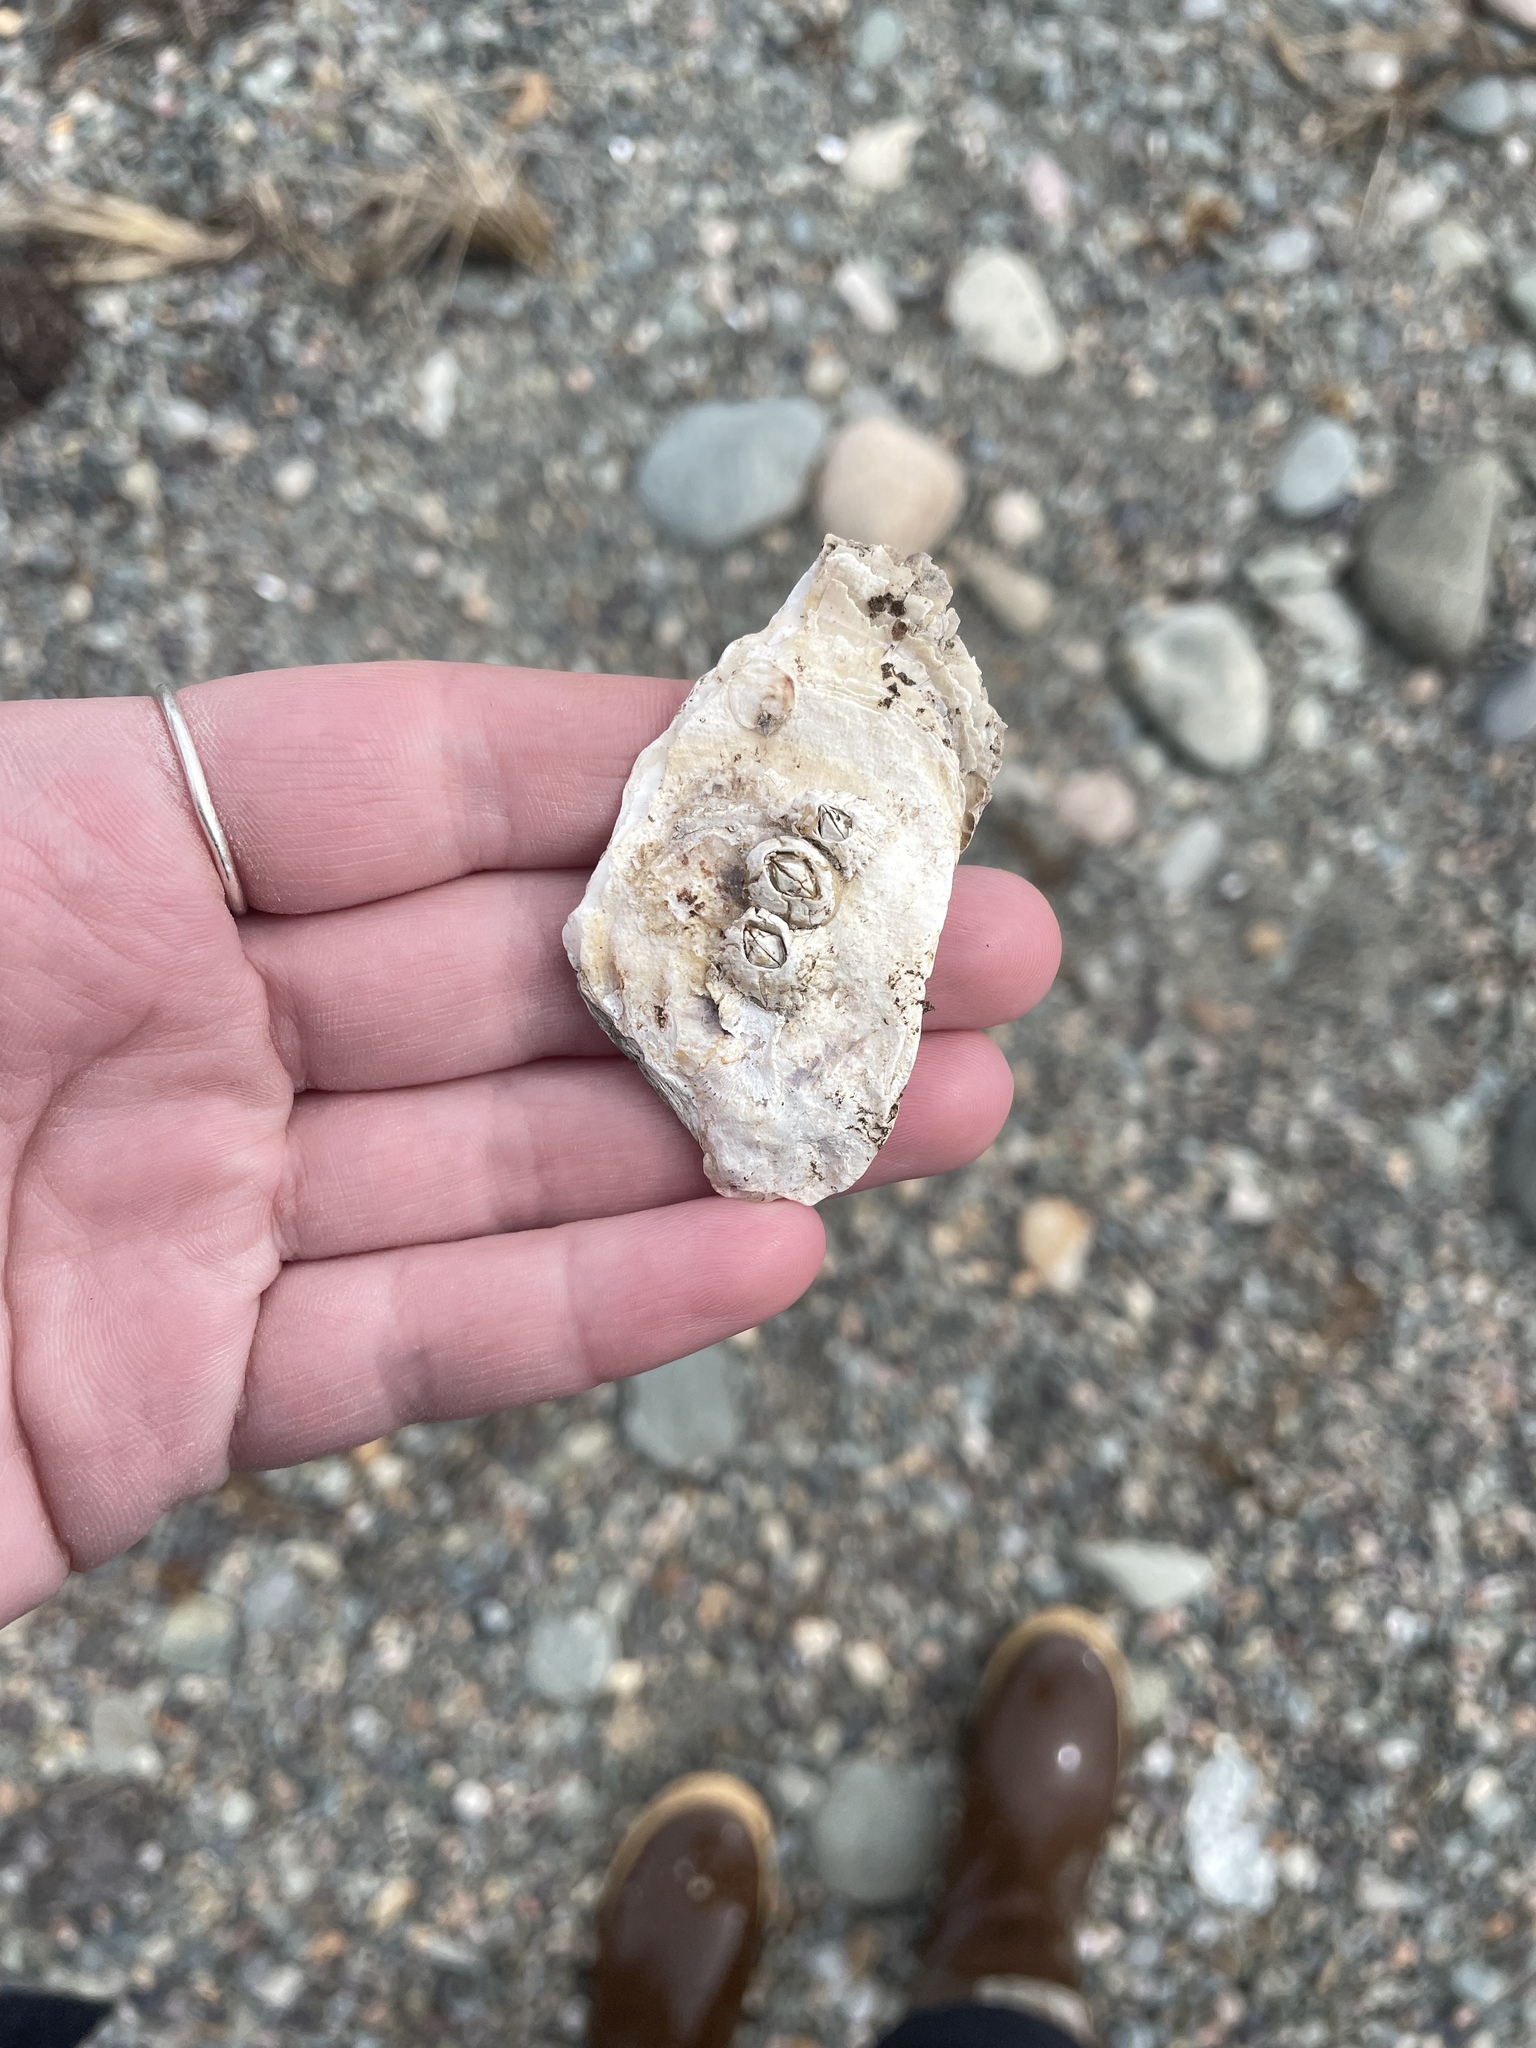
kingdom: Animalia
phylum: Mollusca
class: Bivalvia
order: Ostreida
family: Ostreidae
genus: Crassostrea
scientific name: Crassostrea virginica
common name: American oyster
